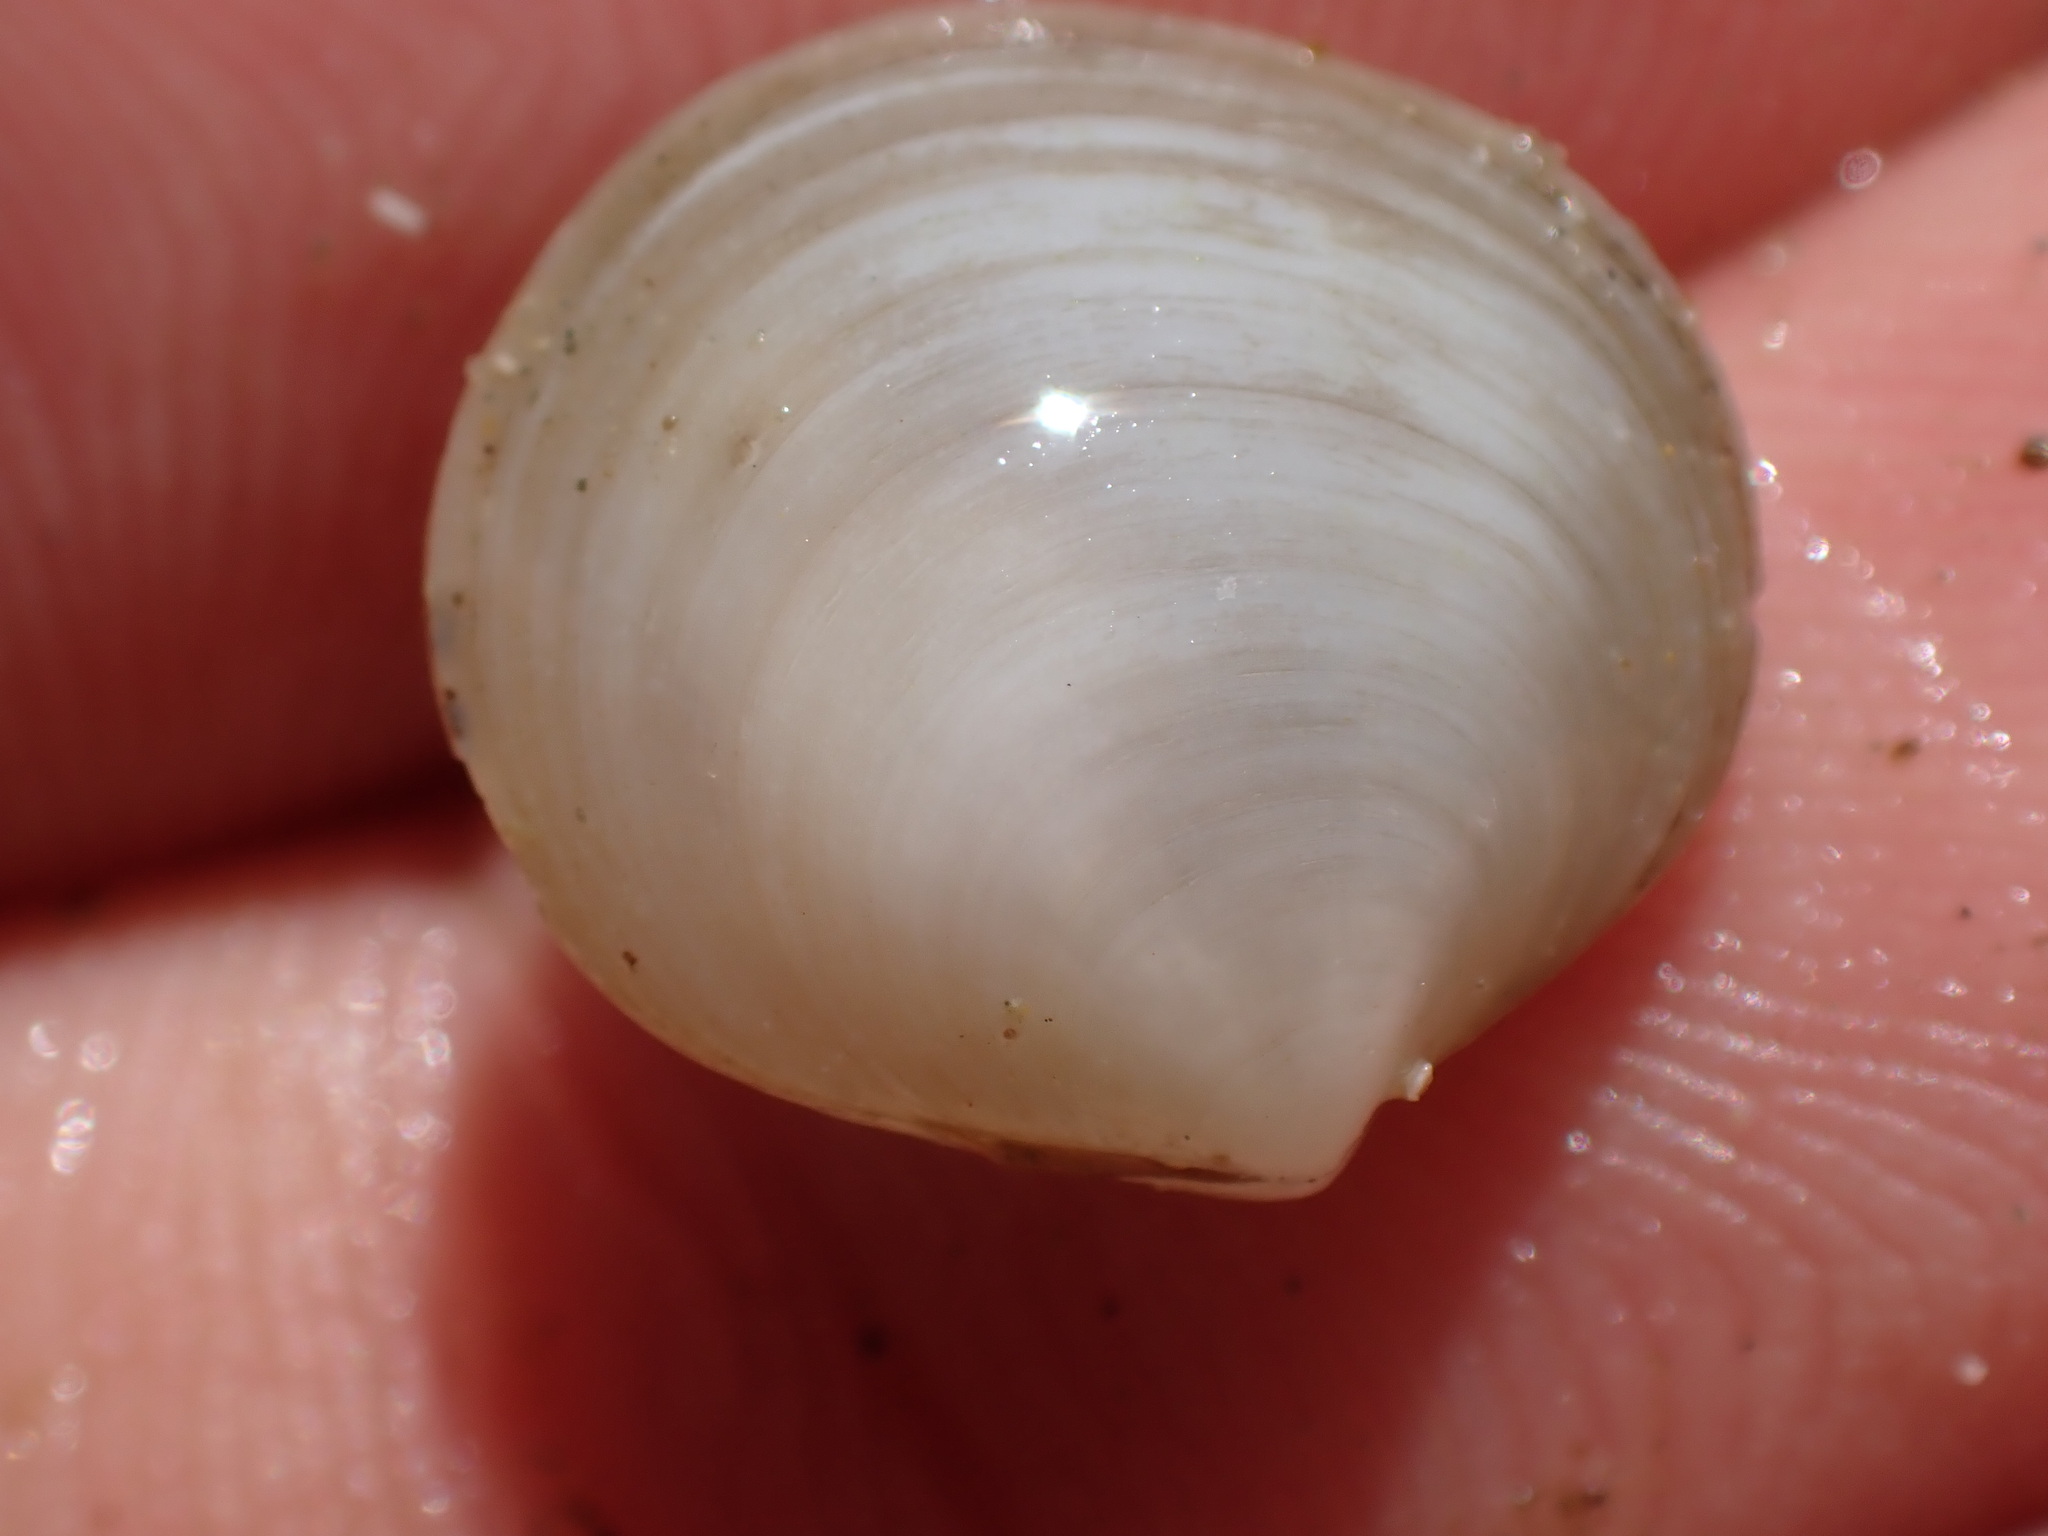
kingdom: Animalia
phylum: Mollusca
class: Bivalvia
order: Venerida
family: Ungulinidae
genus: Zemysia
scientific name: Zemysia zelandica
